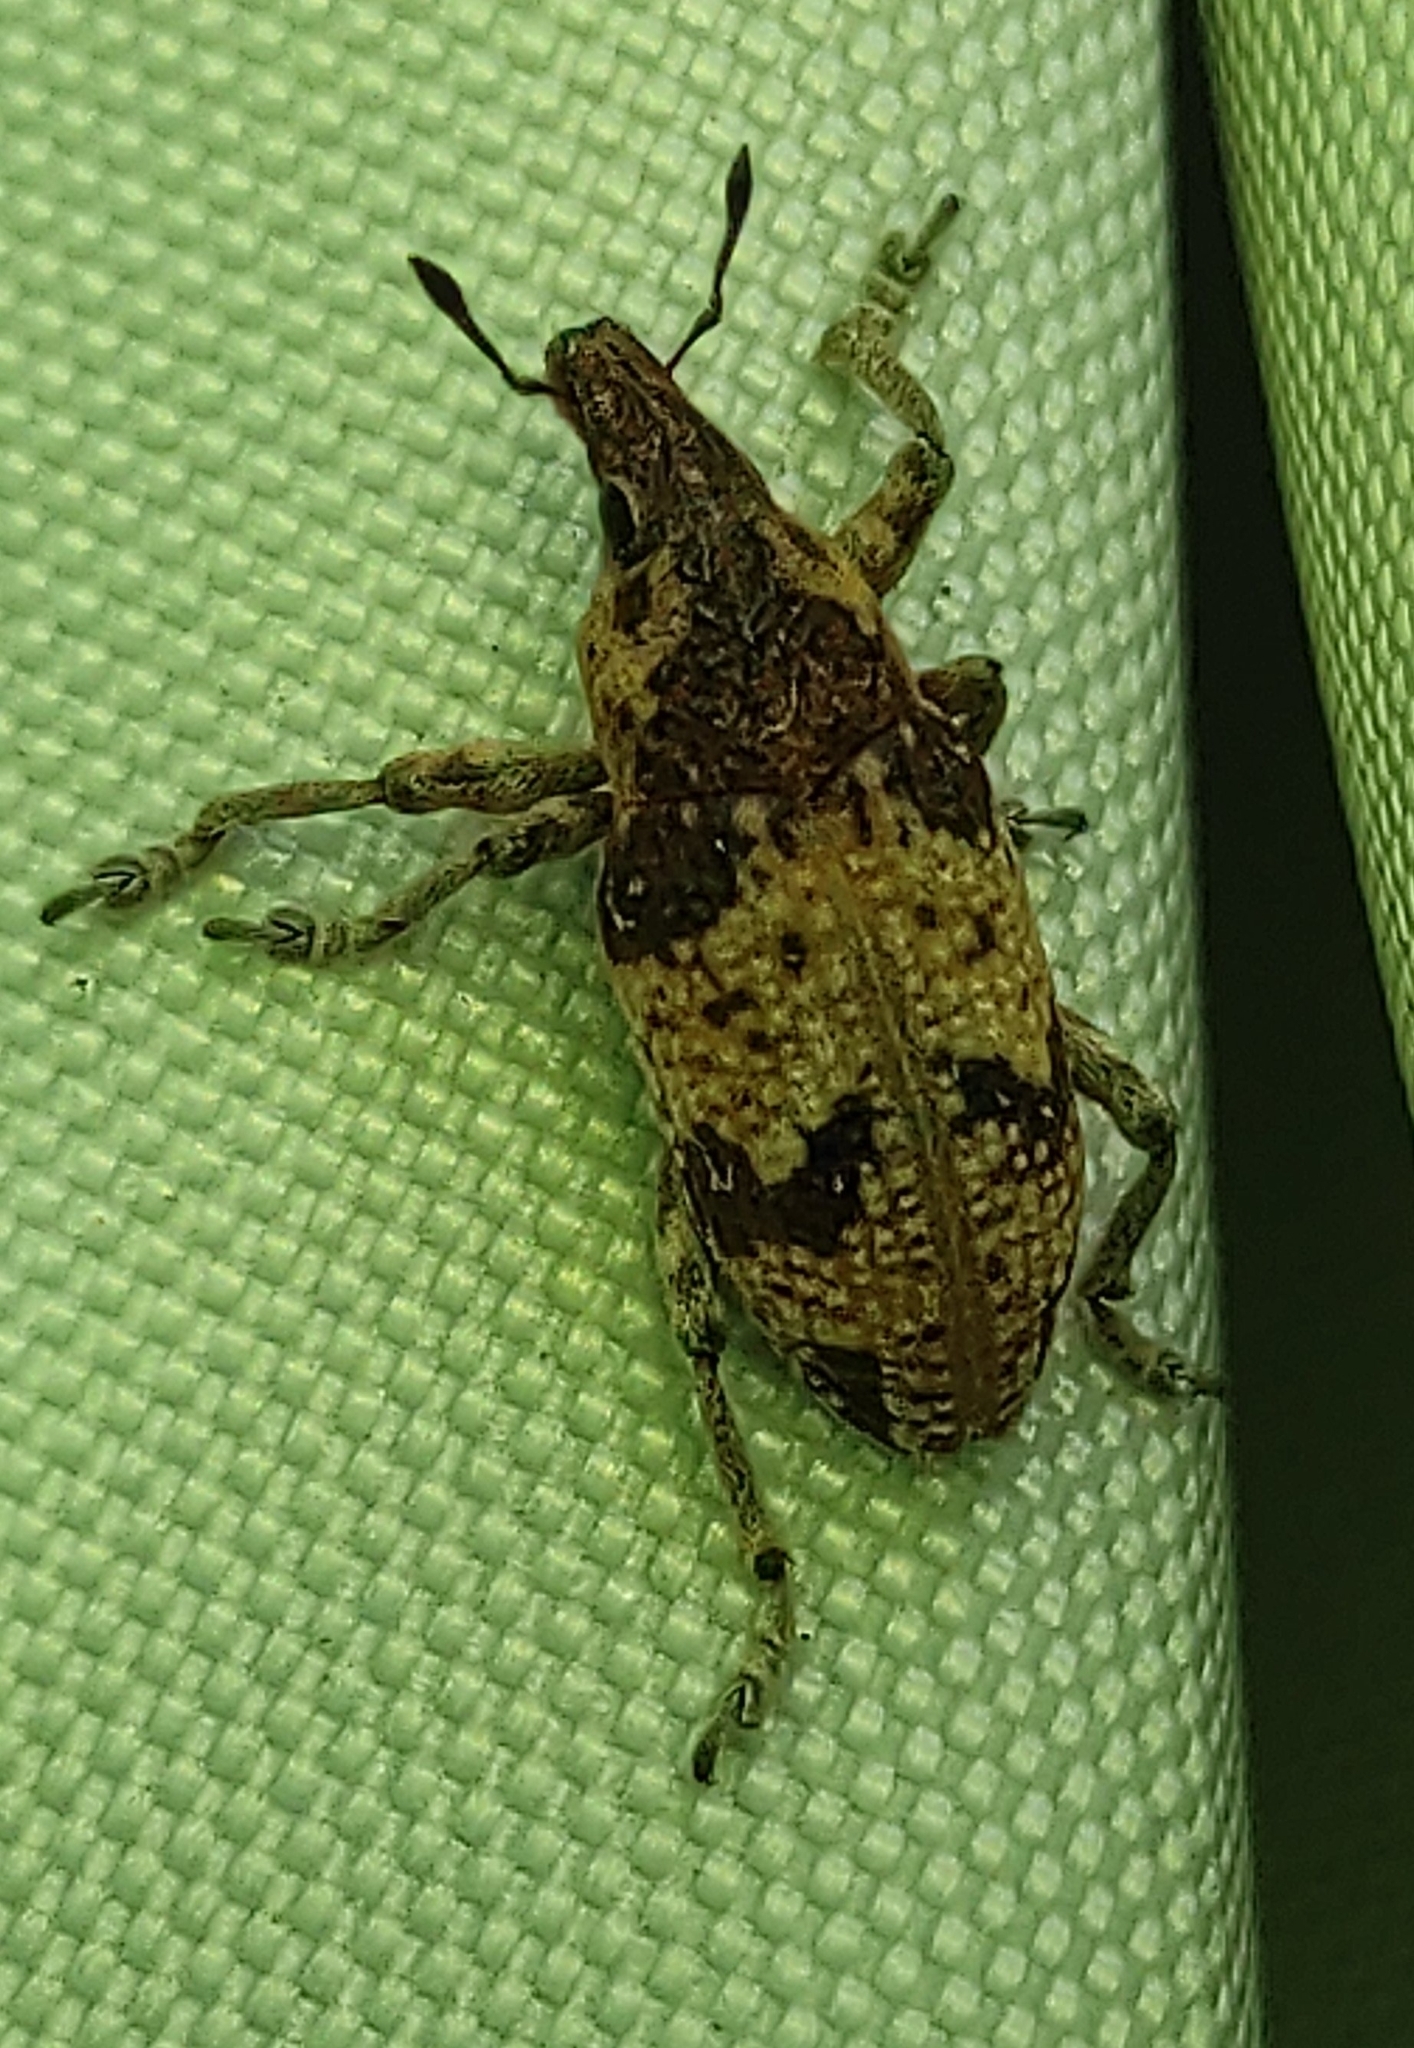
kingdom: Animalia
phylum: Arthropoda
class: Insecta
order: Coleoptera
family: Curculionidae
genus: Bothynoderes
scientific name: Bothynoderes affinis
